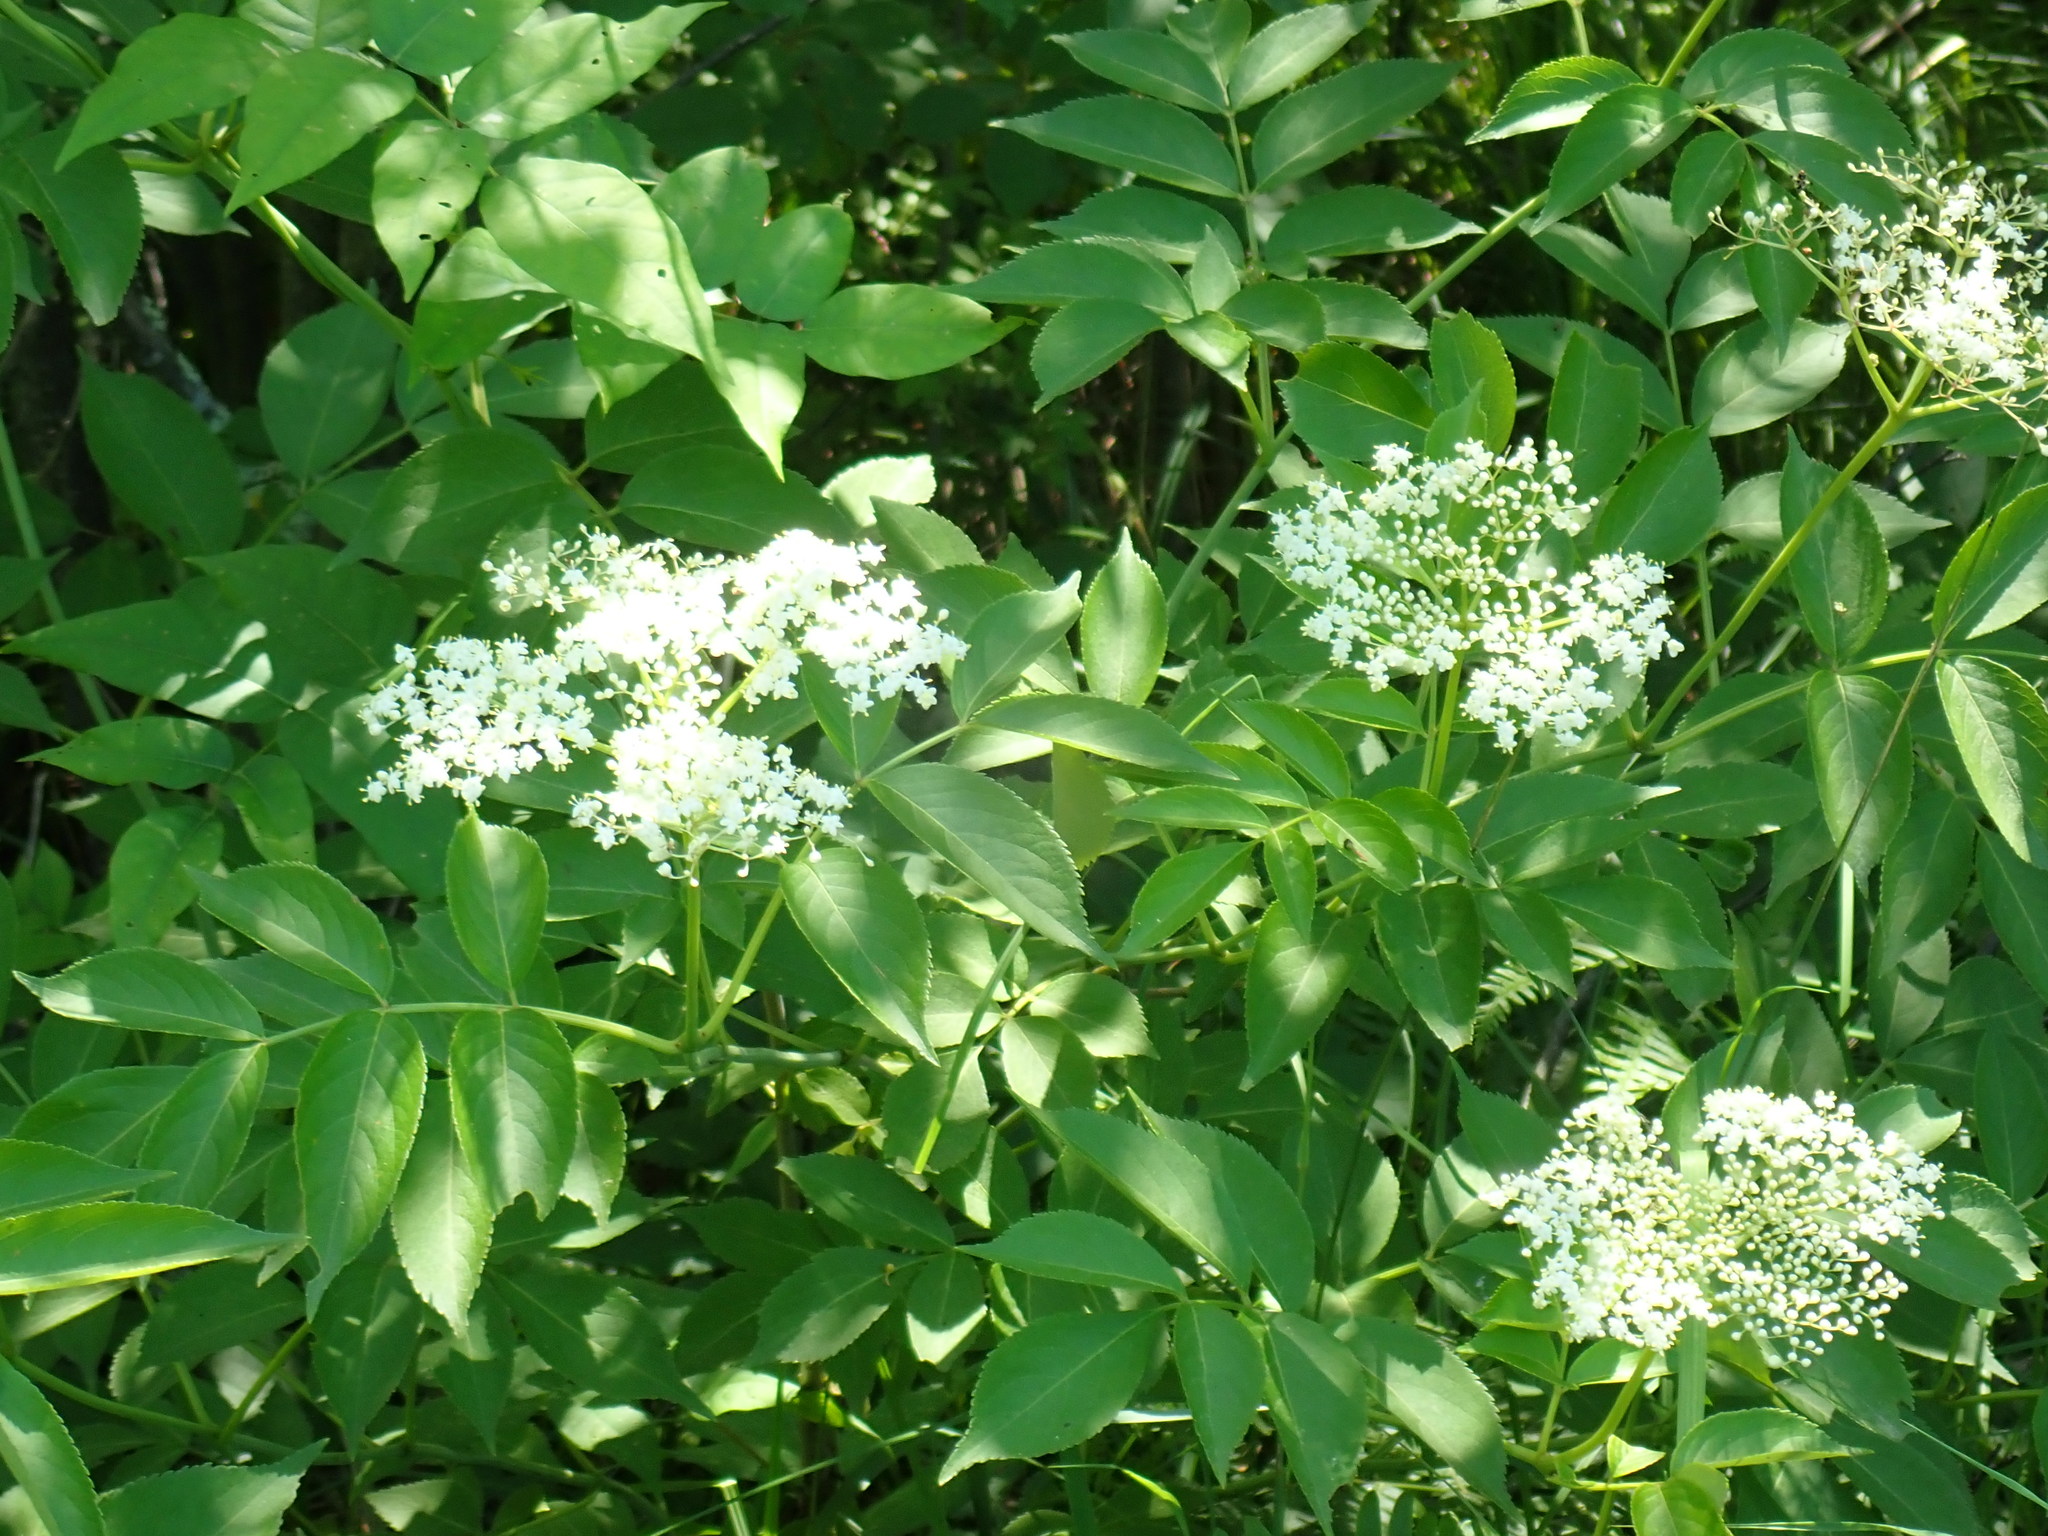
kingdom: Plantae
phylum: Tracheophyta
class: Magnoliopsida
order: Dipsacales
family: Viburnaceae
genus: Sambucus
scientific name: Sambucus canadensis
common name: American elder
